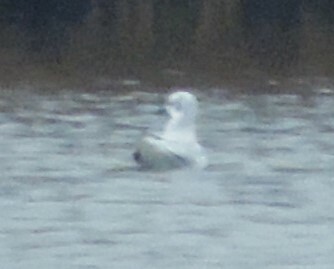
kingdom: Animalia
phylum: Chordata
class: Aves
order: Charadriiformes
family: Laridae
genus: Chroicocephalus
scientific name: Chroicocephalus philadelphia
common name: Bonaparte's gull
